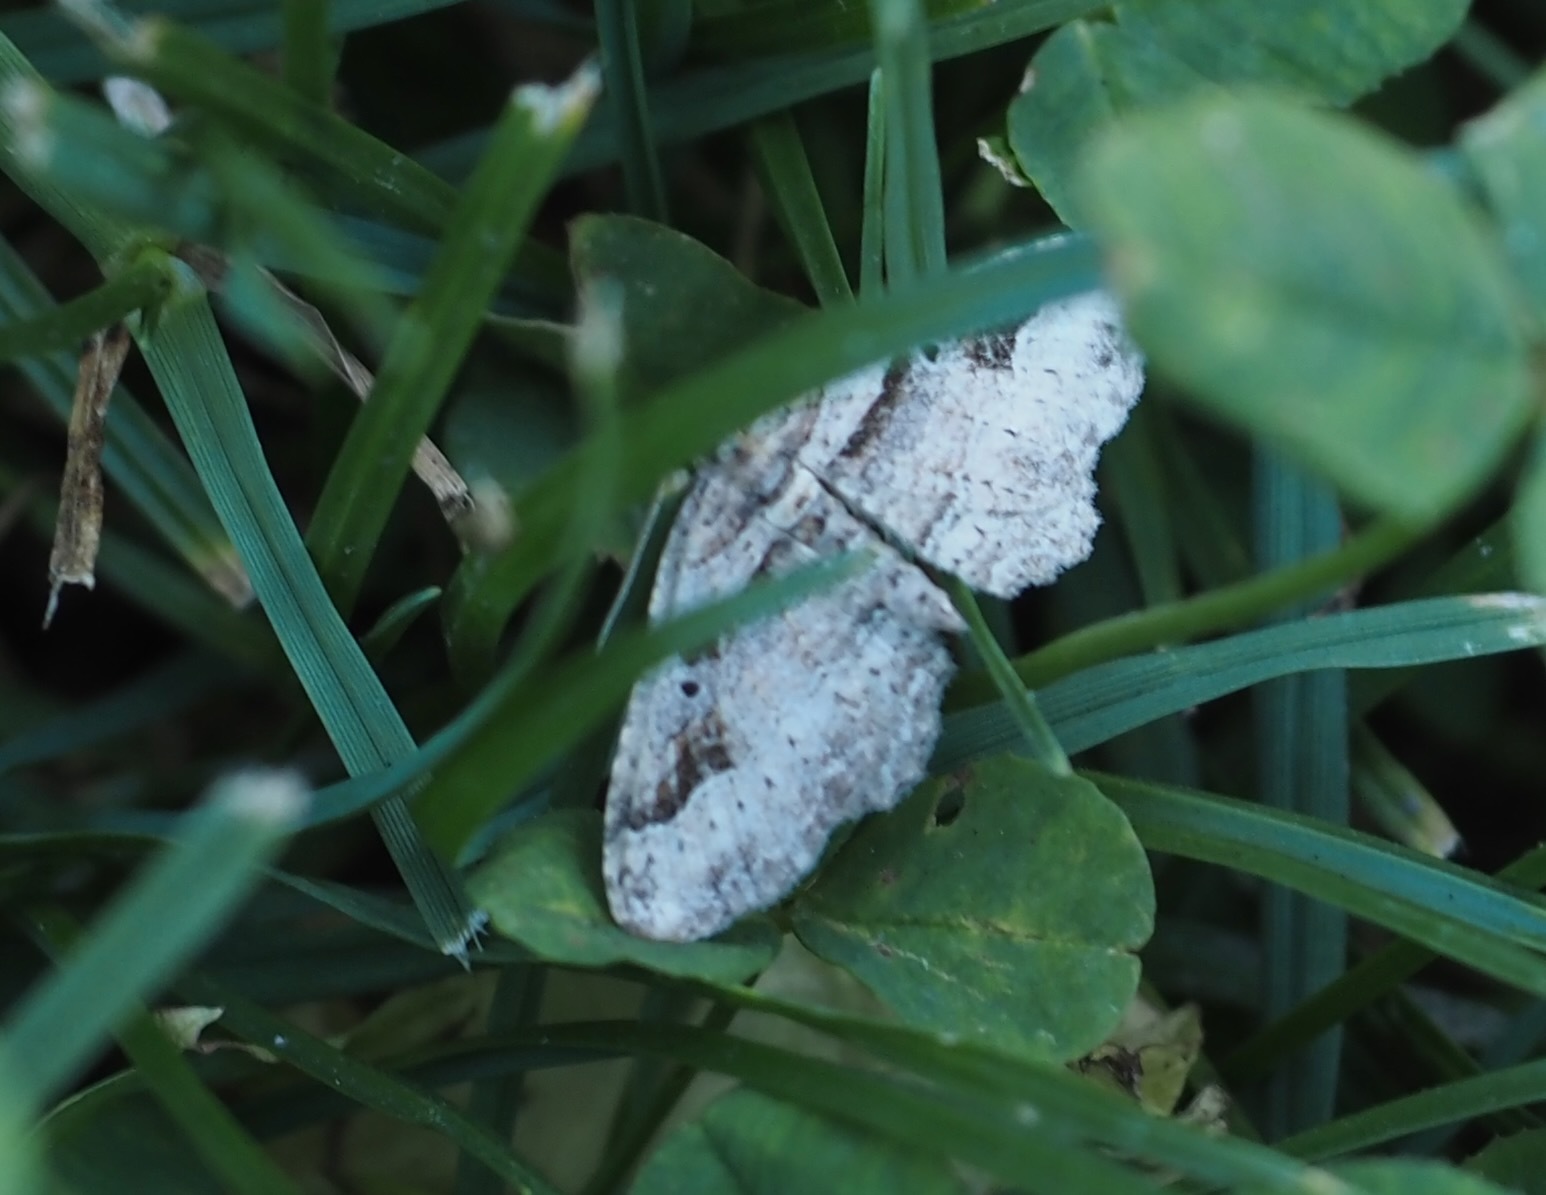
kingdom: Animalia
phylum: Arthropoda
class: Insecta
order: Lepidoptera
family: Geometridae
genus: Costaconvexa
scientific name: Costaconvexa centrostrigaria
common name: Bent-line carpet
